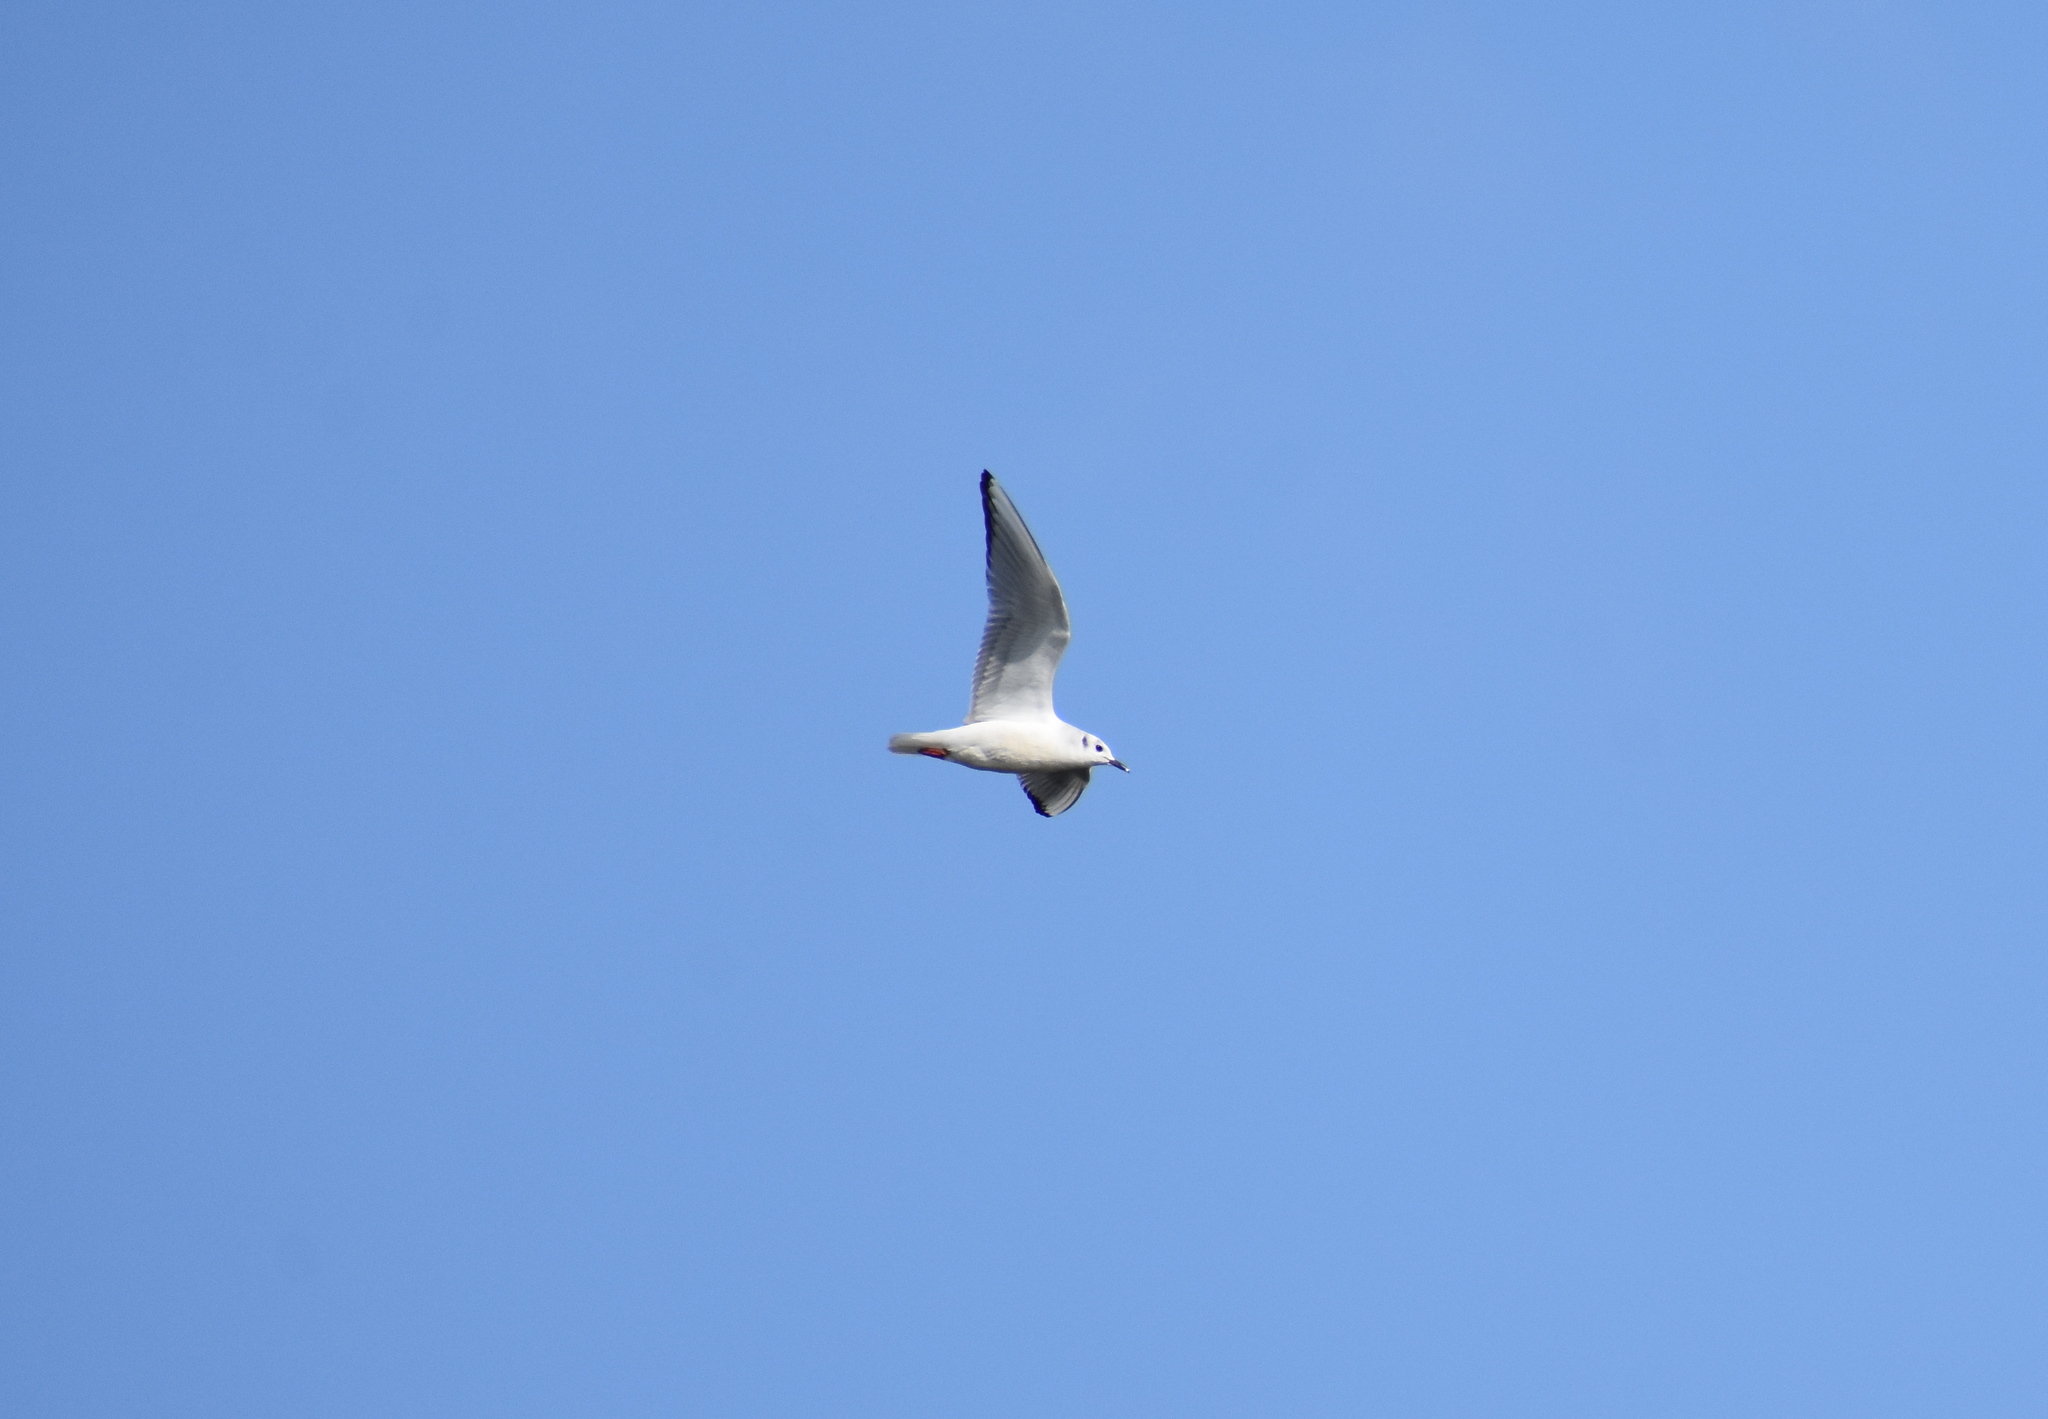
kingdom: Animalia
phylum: Chordata
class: Aves
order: Charadriiformes
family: Laridae
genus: Chroicocephalus
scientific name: Chroicocephalus philadelphia
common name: Bonaparte's gull
